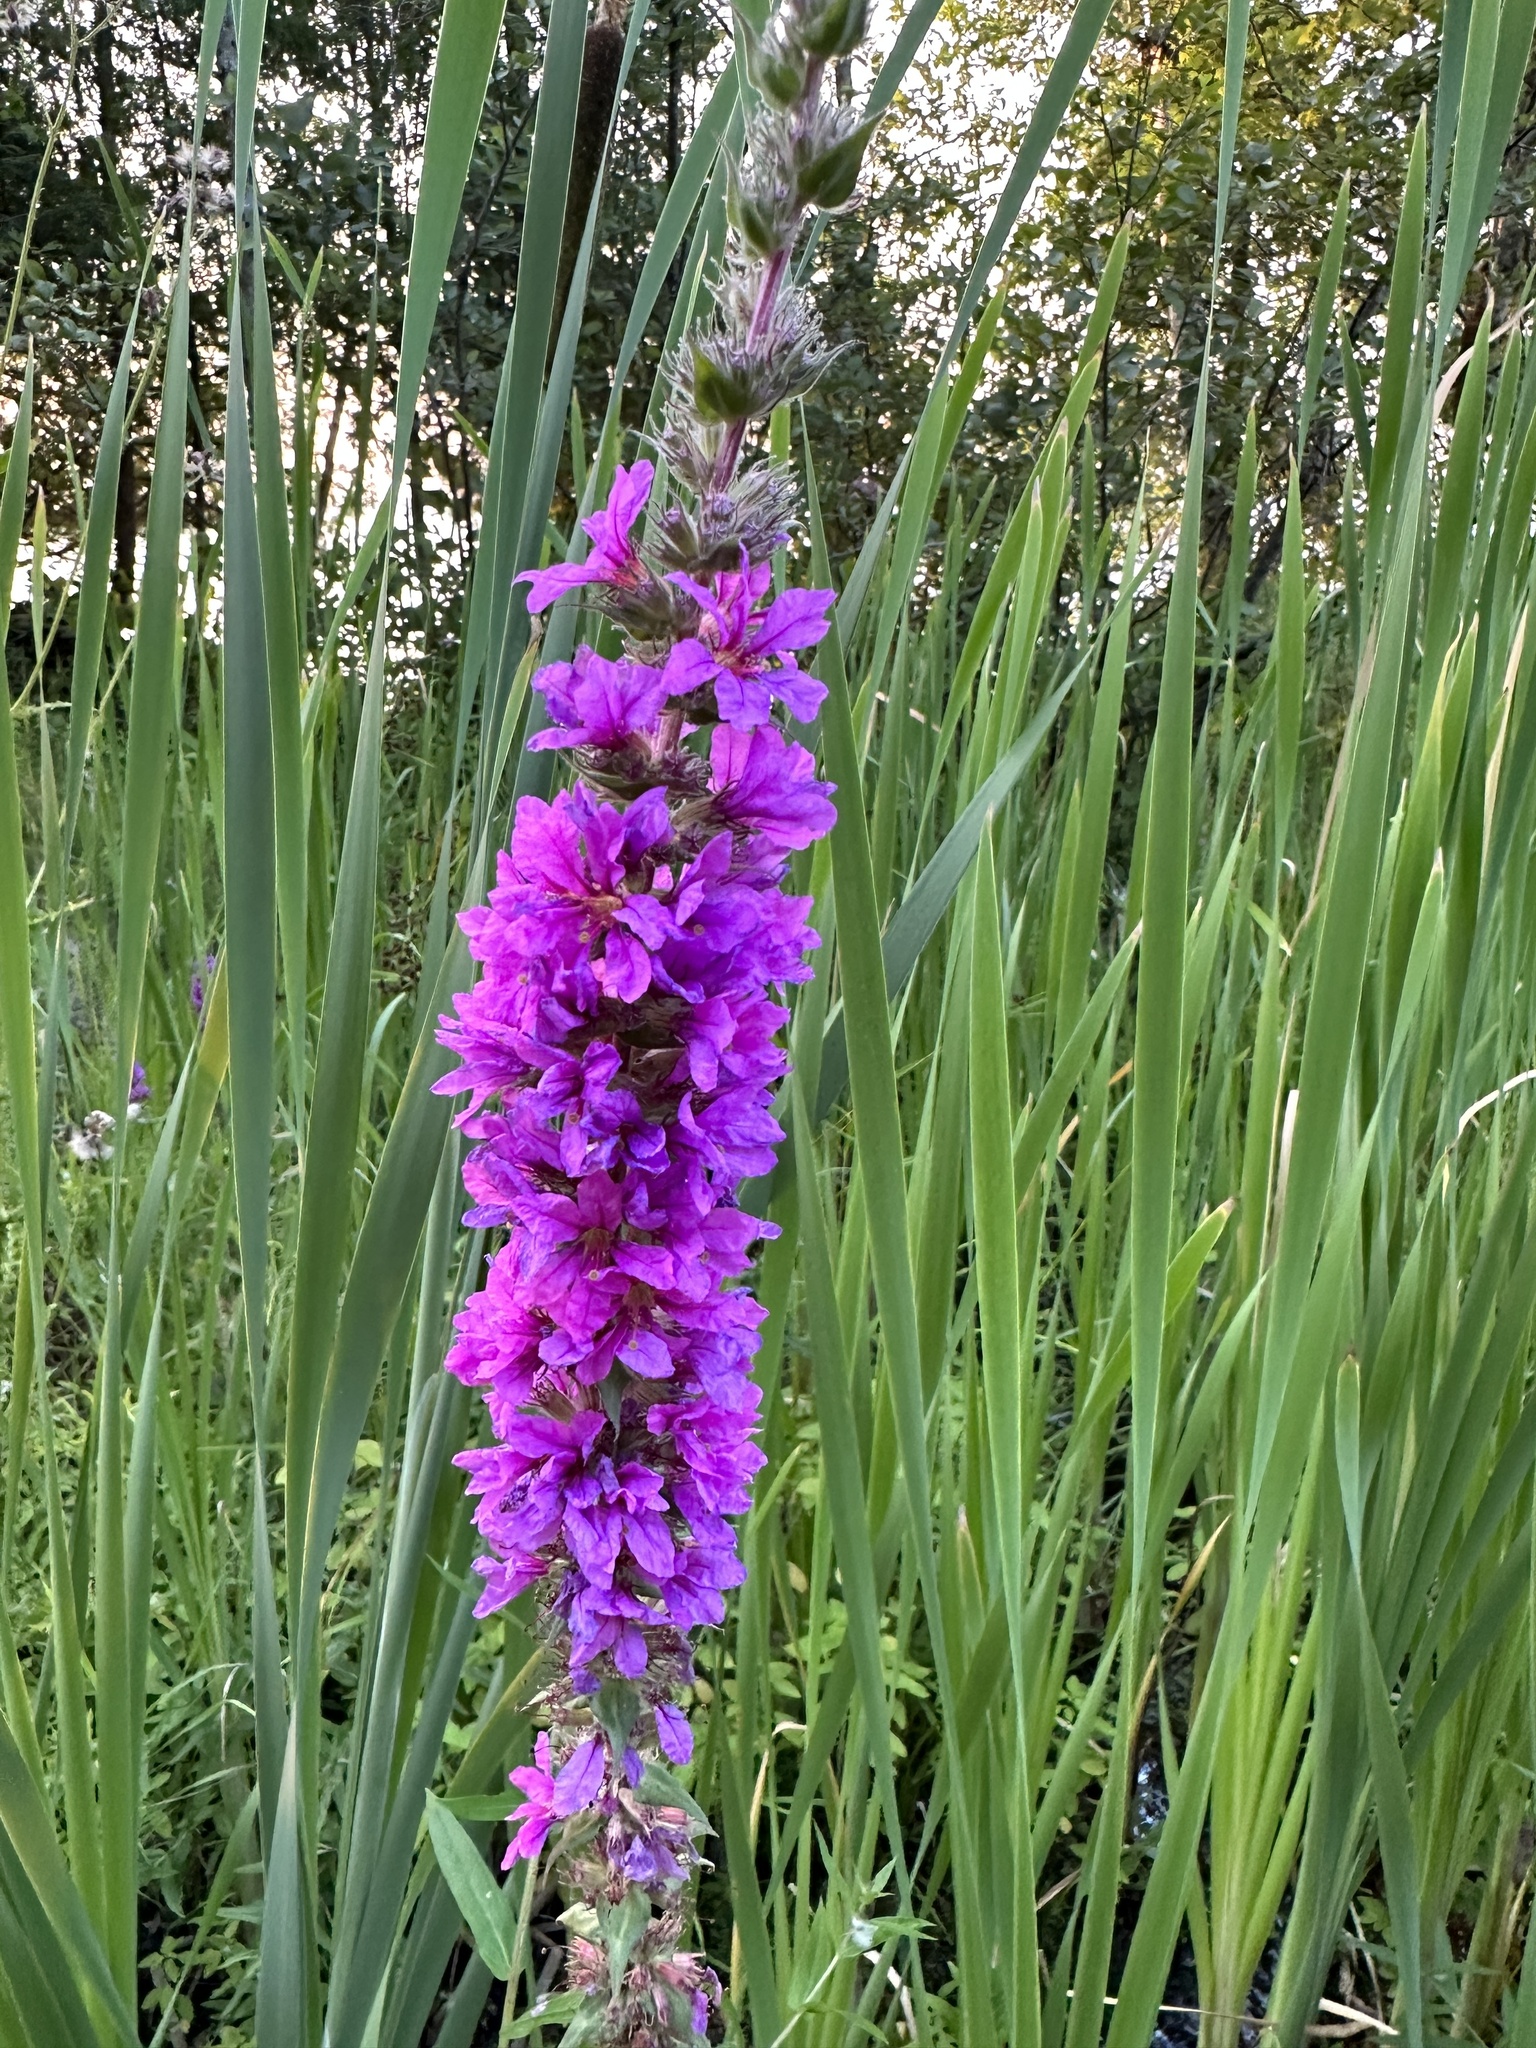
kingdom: Plantae
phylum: Tracheophyta
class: Magnoliopsida
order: Myrtales
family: Lythraceae
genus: Lythrum
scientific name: Lythrum salicaria
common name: Purple loosestrife
